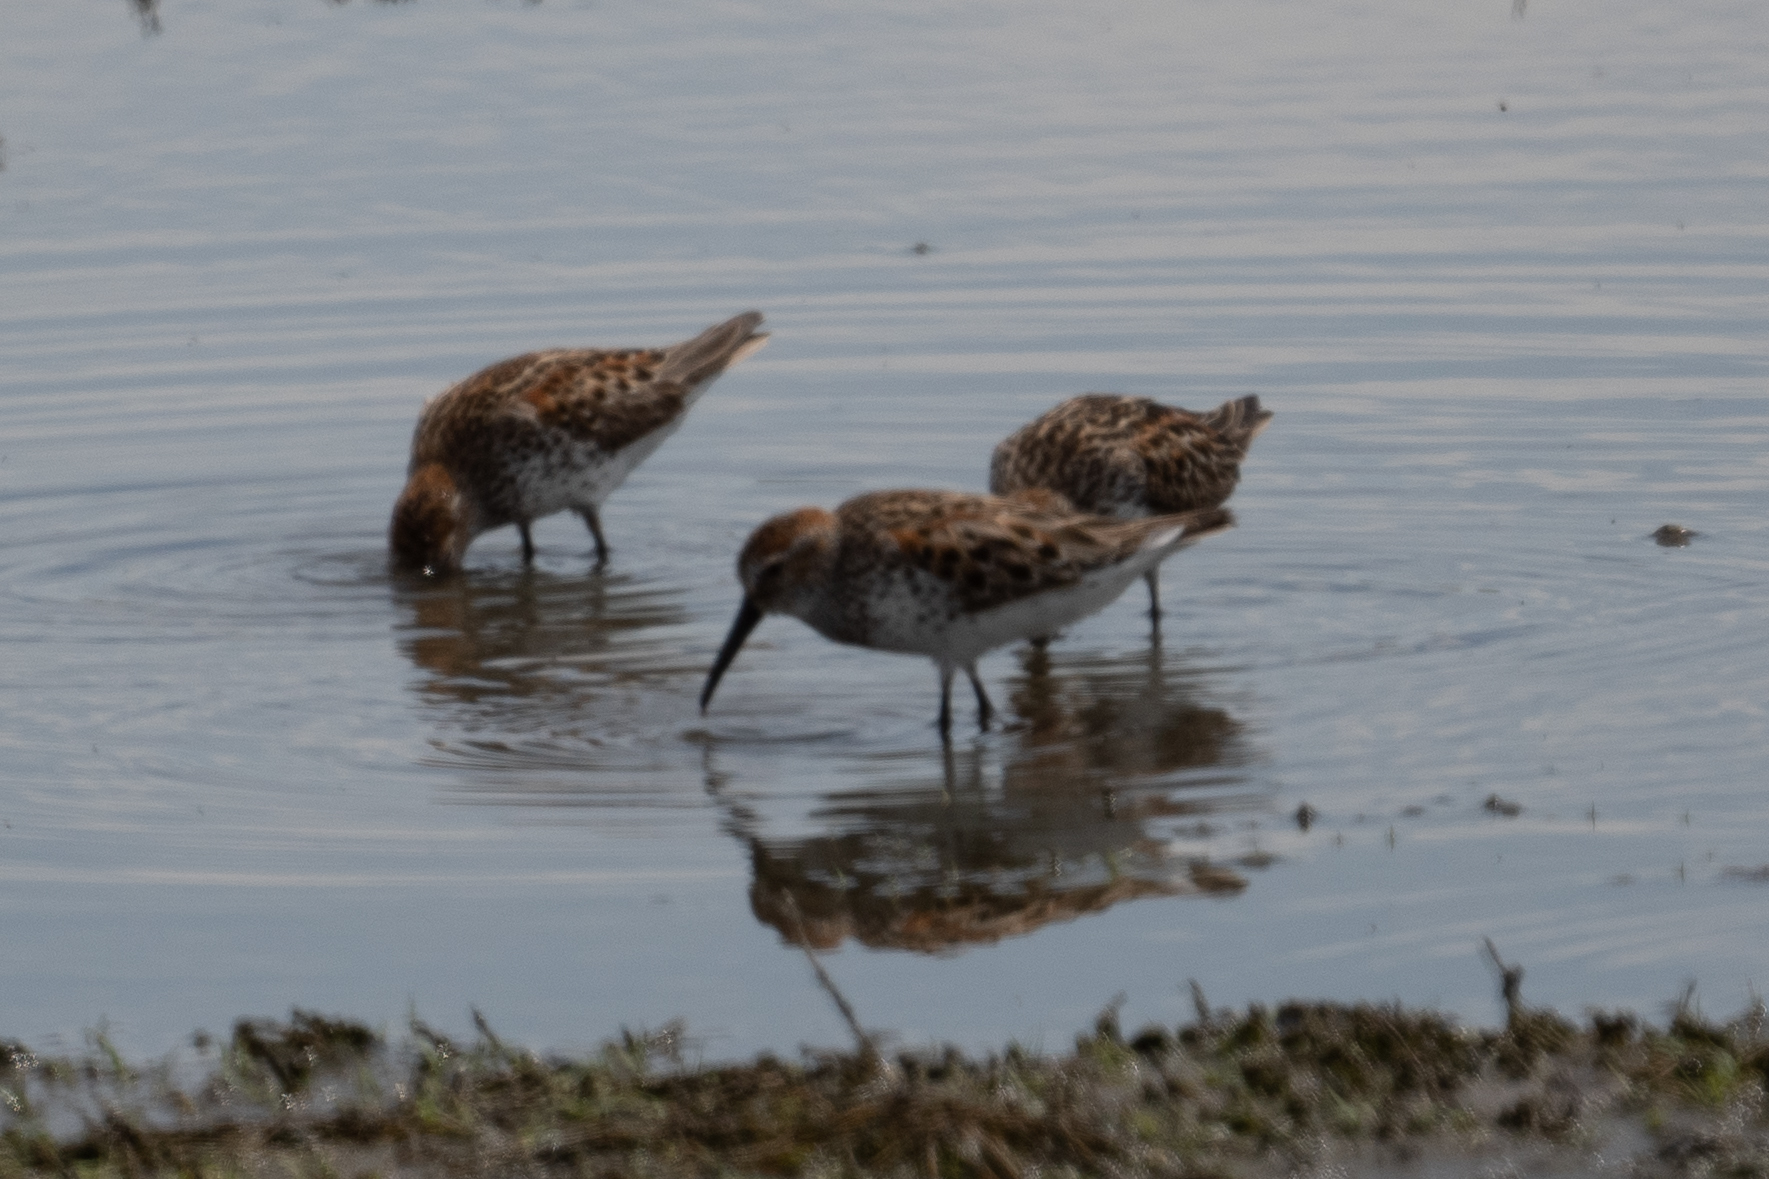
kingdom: Animalia
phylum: Chordata
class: Aves
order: Charadriiformes
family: Scolopacidae
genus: Calidris
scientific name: Calidris mauri
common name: Western sandpiper
